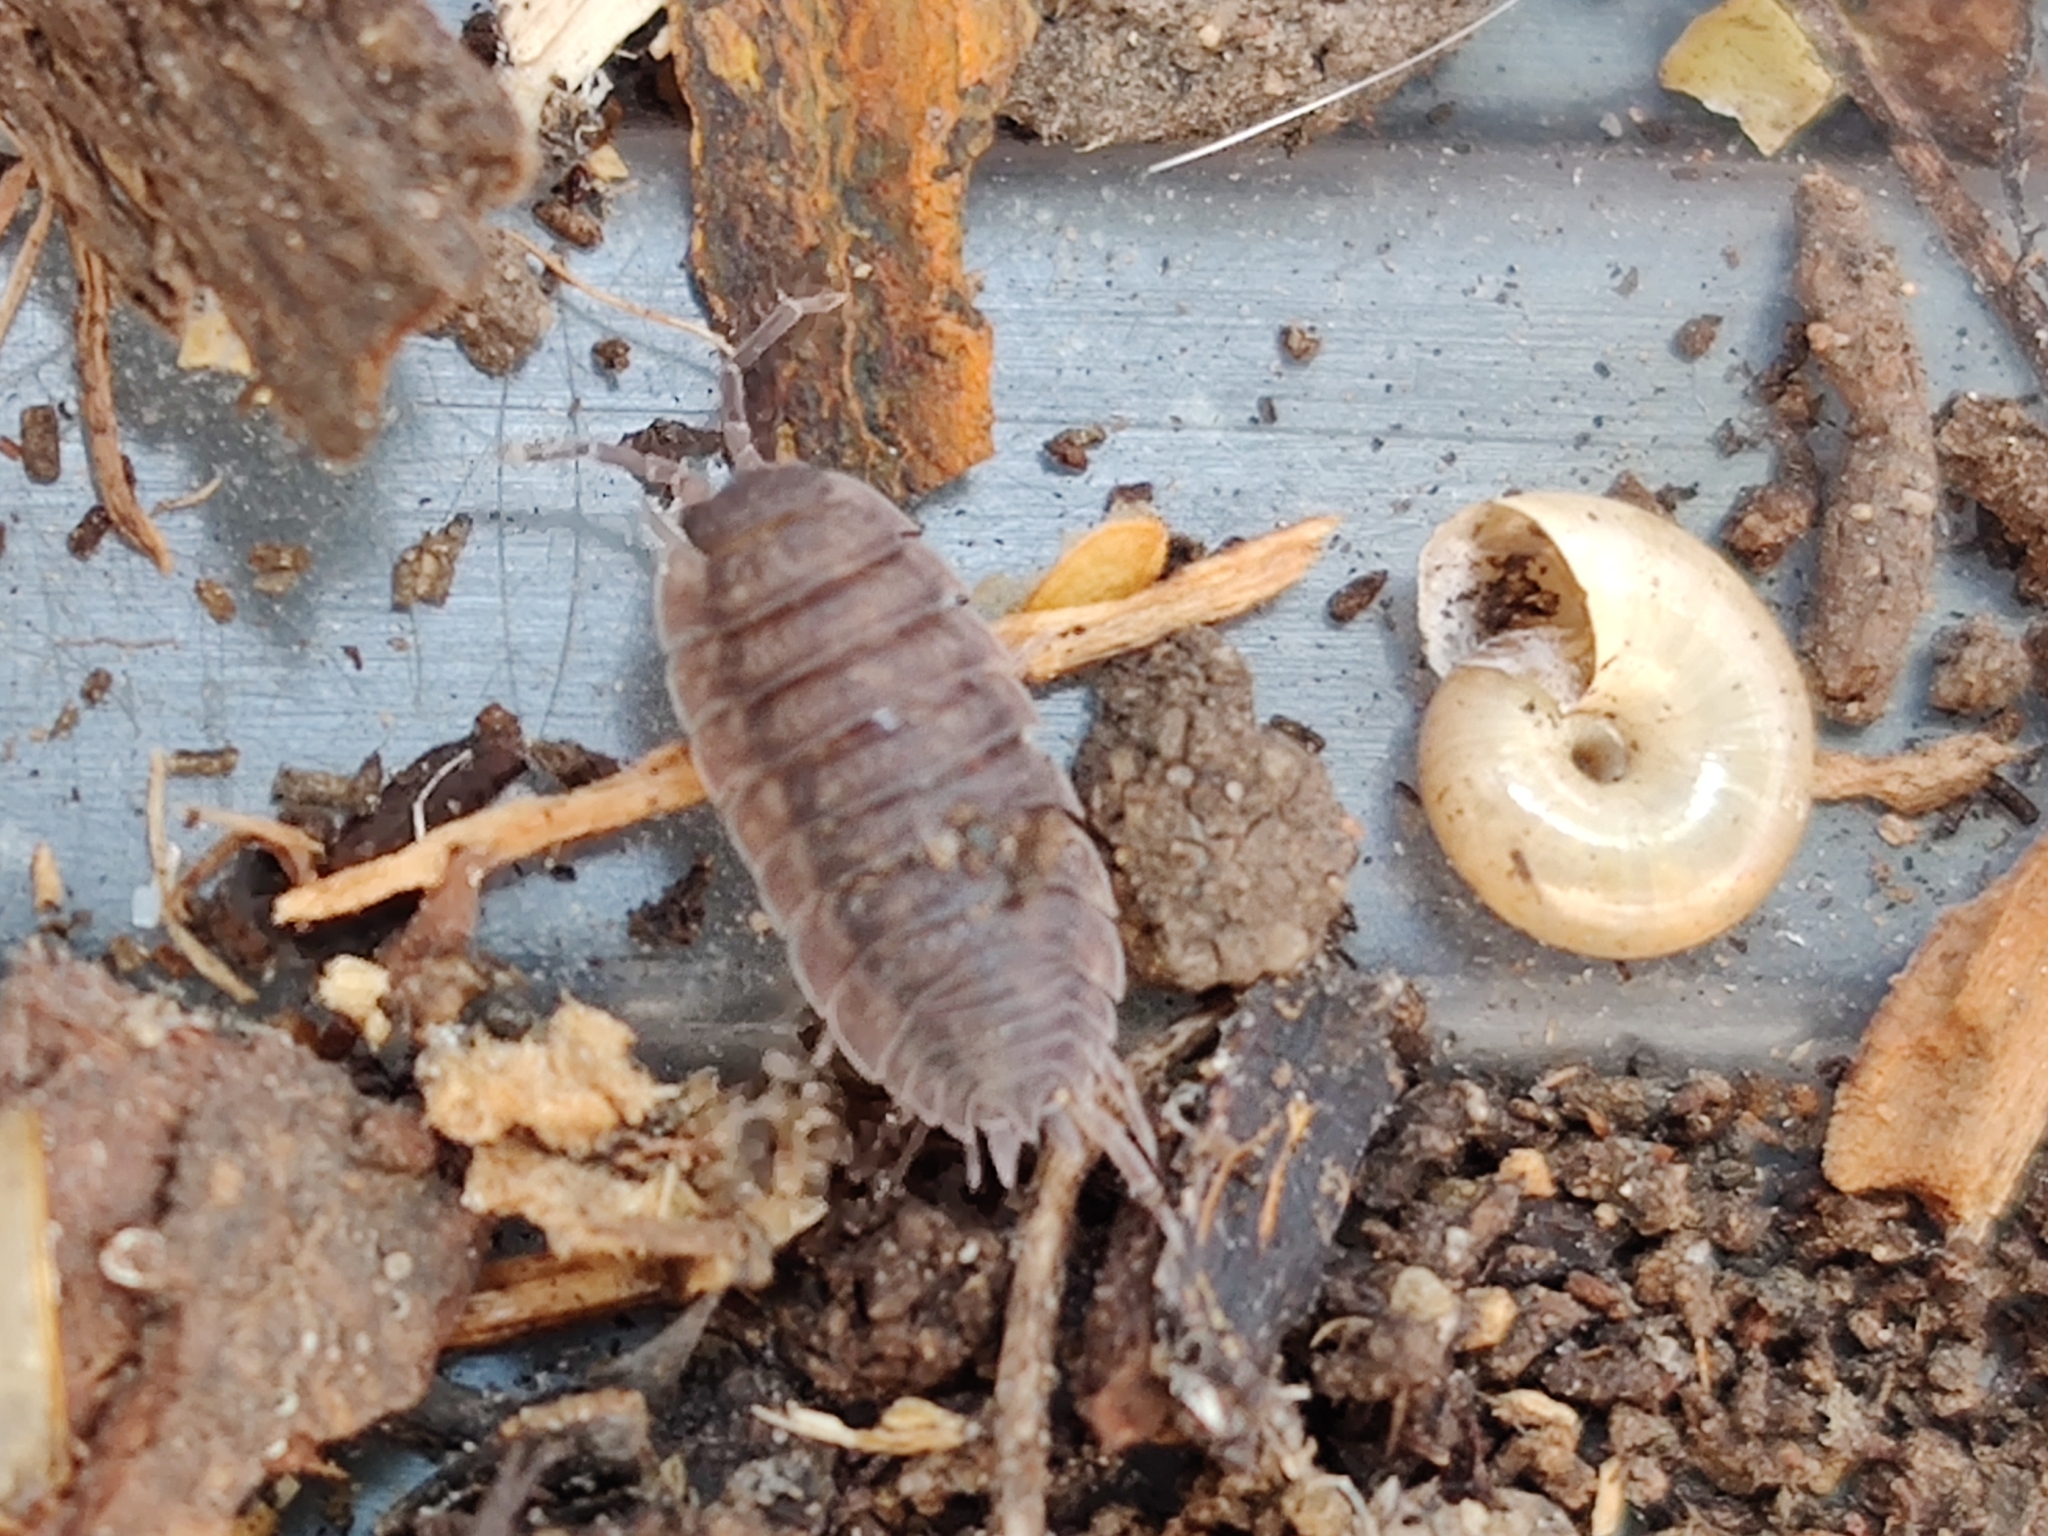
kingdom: Animalia
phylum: Arthropoda
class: Malacostraca
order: Isopoda
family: Porcellionidae
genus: Porcellio
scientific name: Porcellio scaber
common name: Common rough woodlouse
